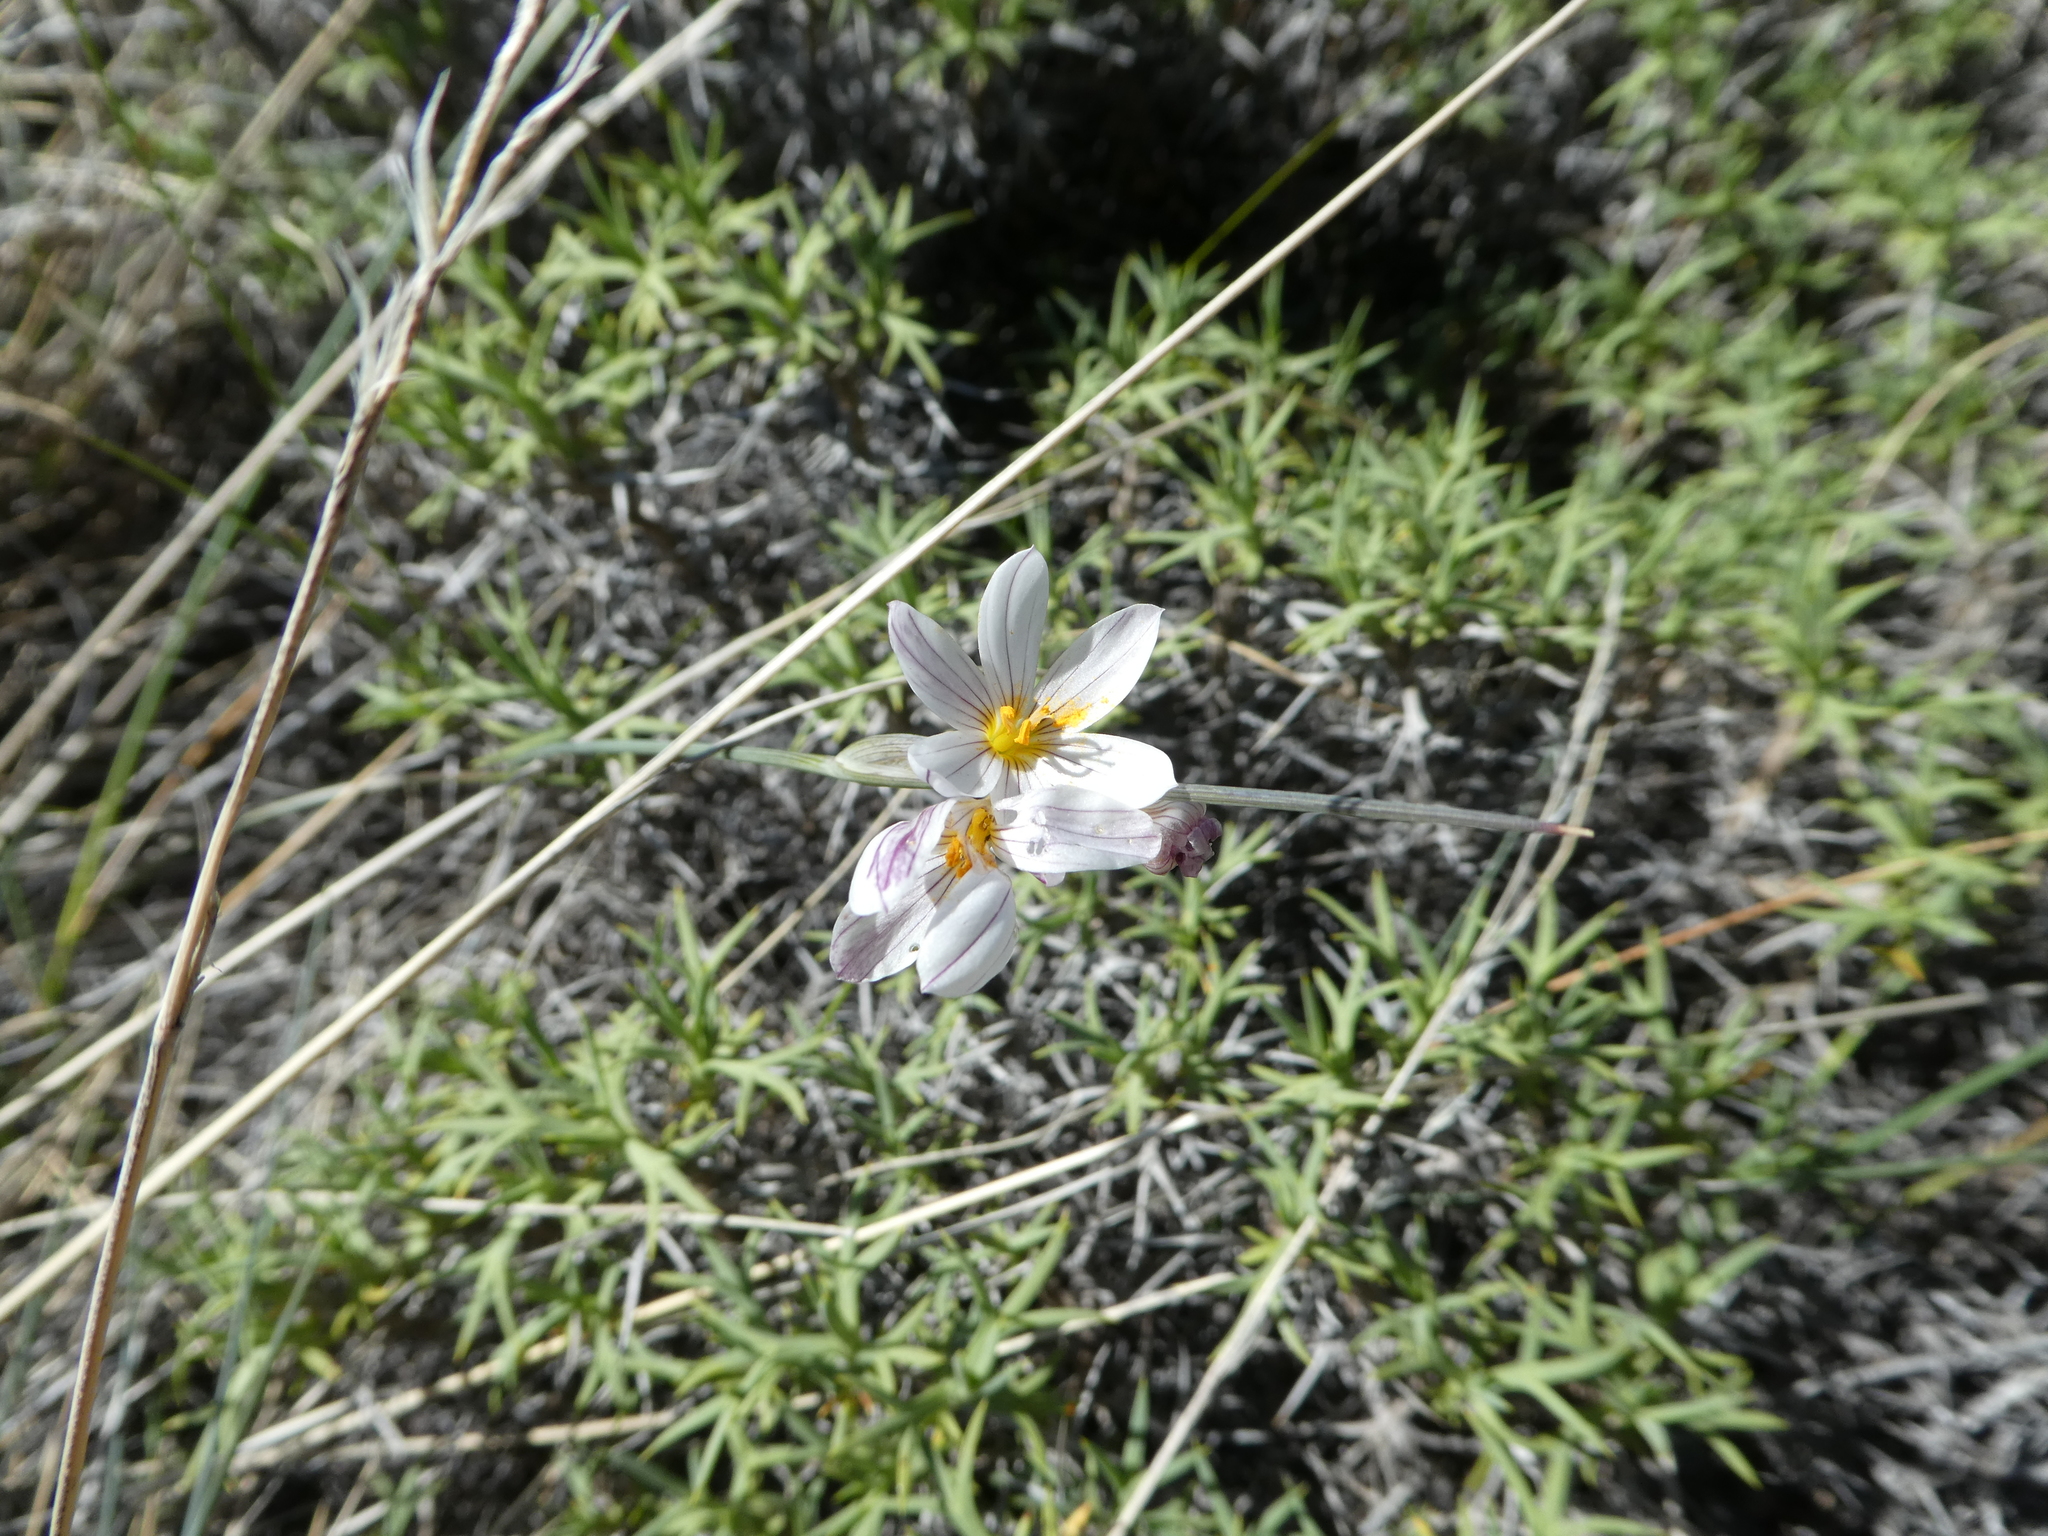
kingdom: Plantae
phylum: Tracheophyta
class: Liliopsida
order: Asparagales
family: Iridaceae
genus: Olsynium
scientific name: Olsynium junceum
